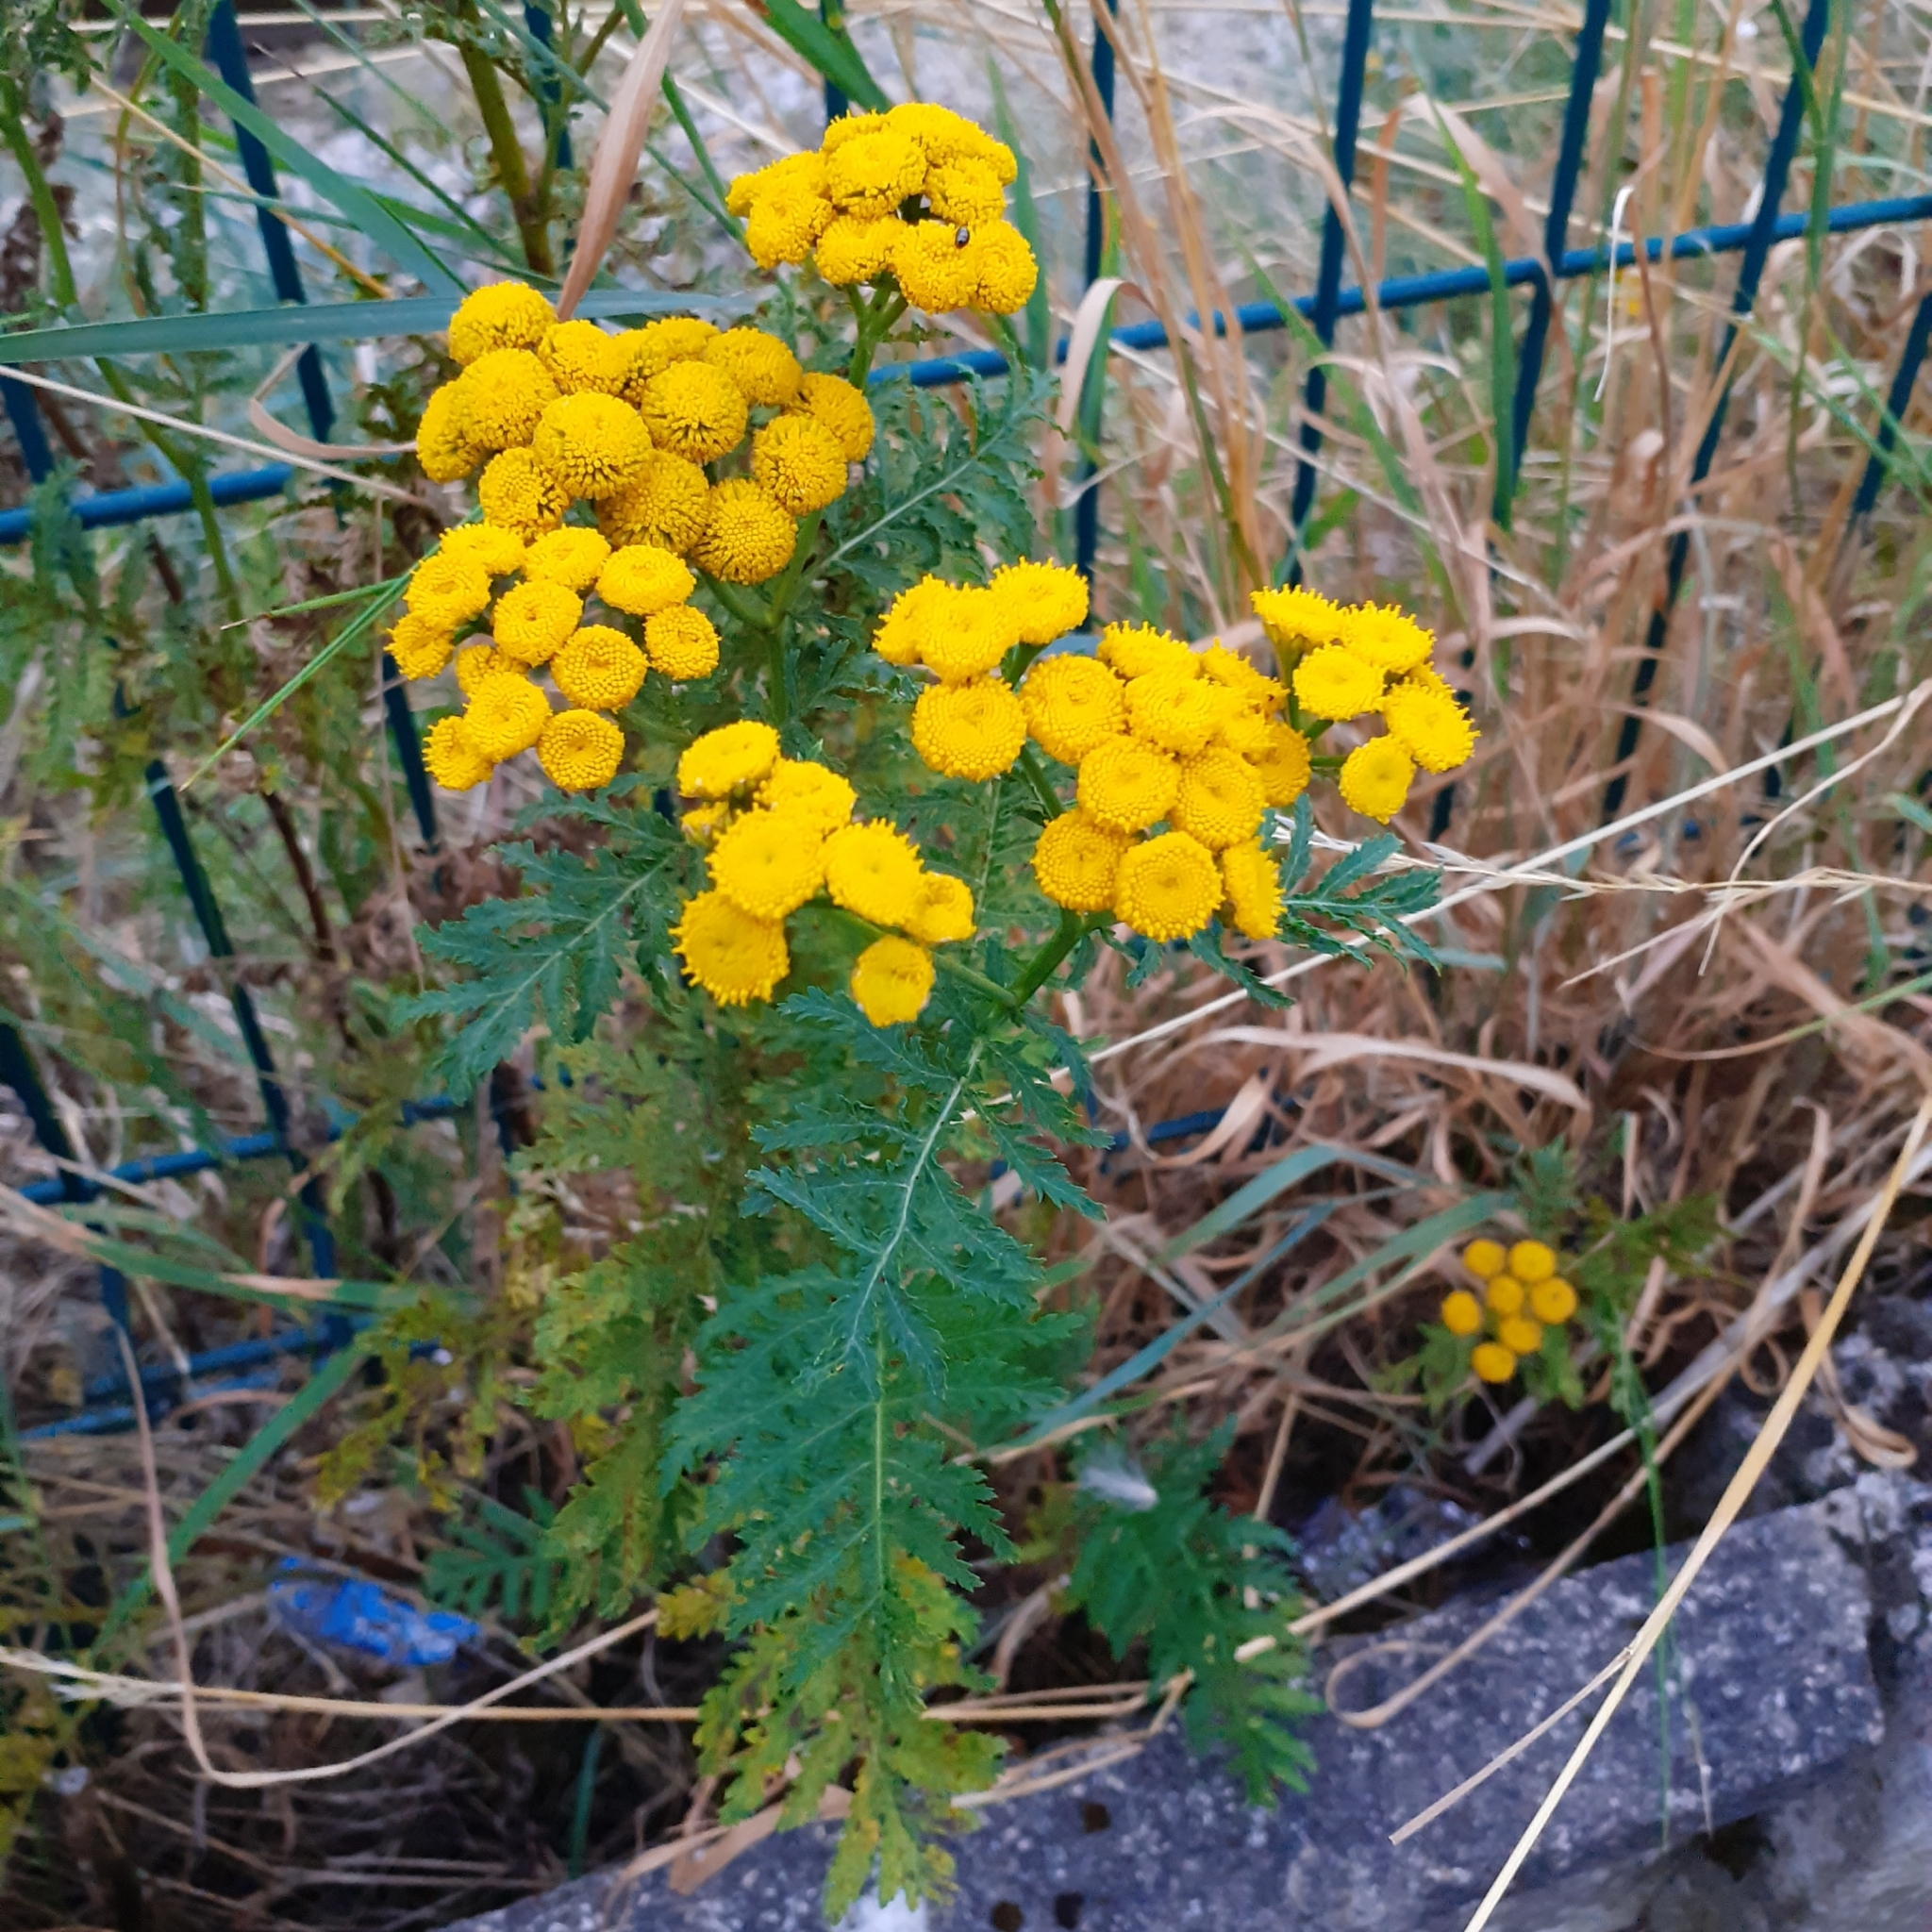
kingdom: Plantae
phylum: Tracheophyta
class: Magnoliopsida
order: Asterales
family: Asteraceae
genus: Tanacetum
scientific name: Tanacetum vulgare
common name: Common tansy
